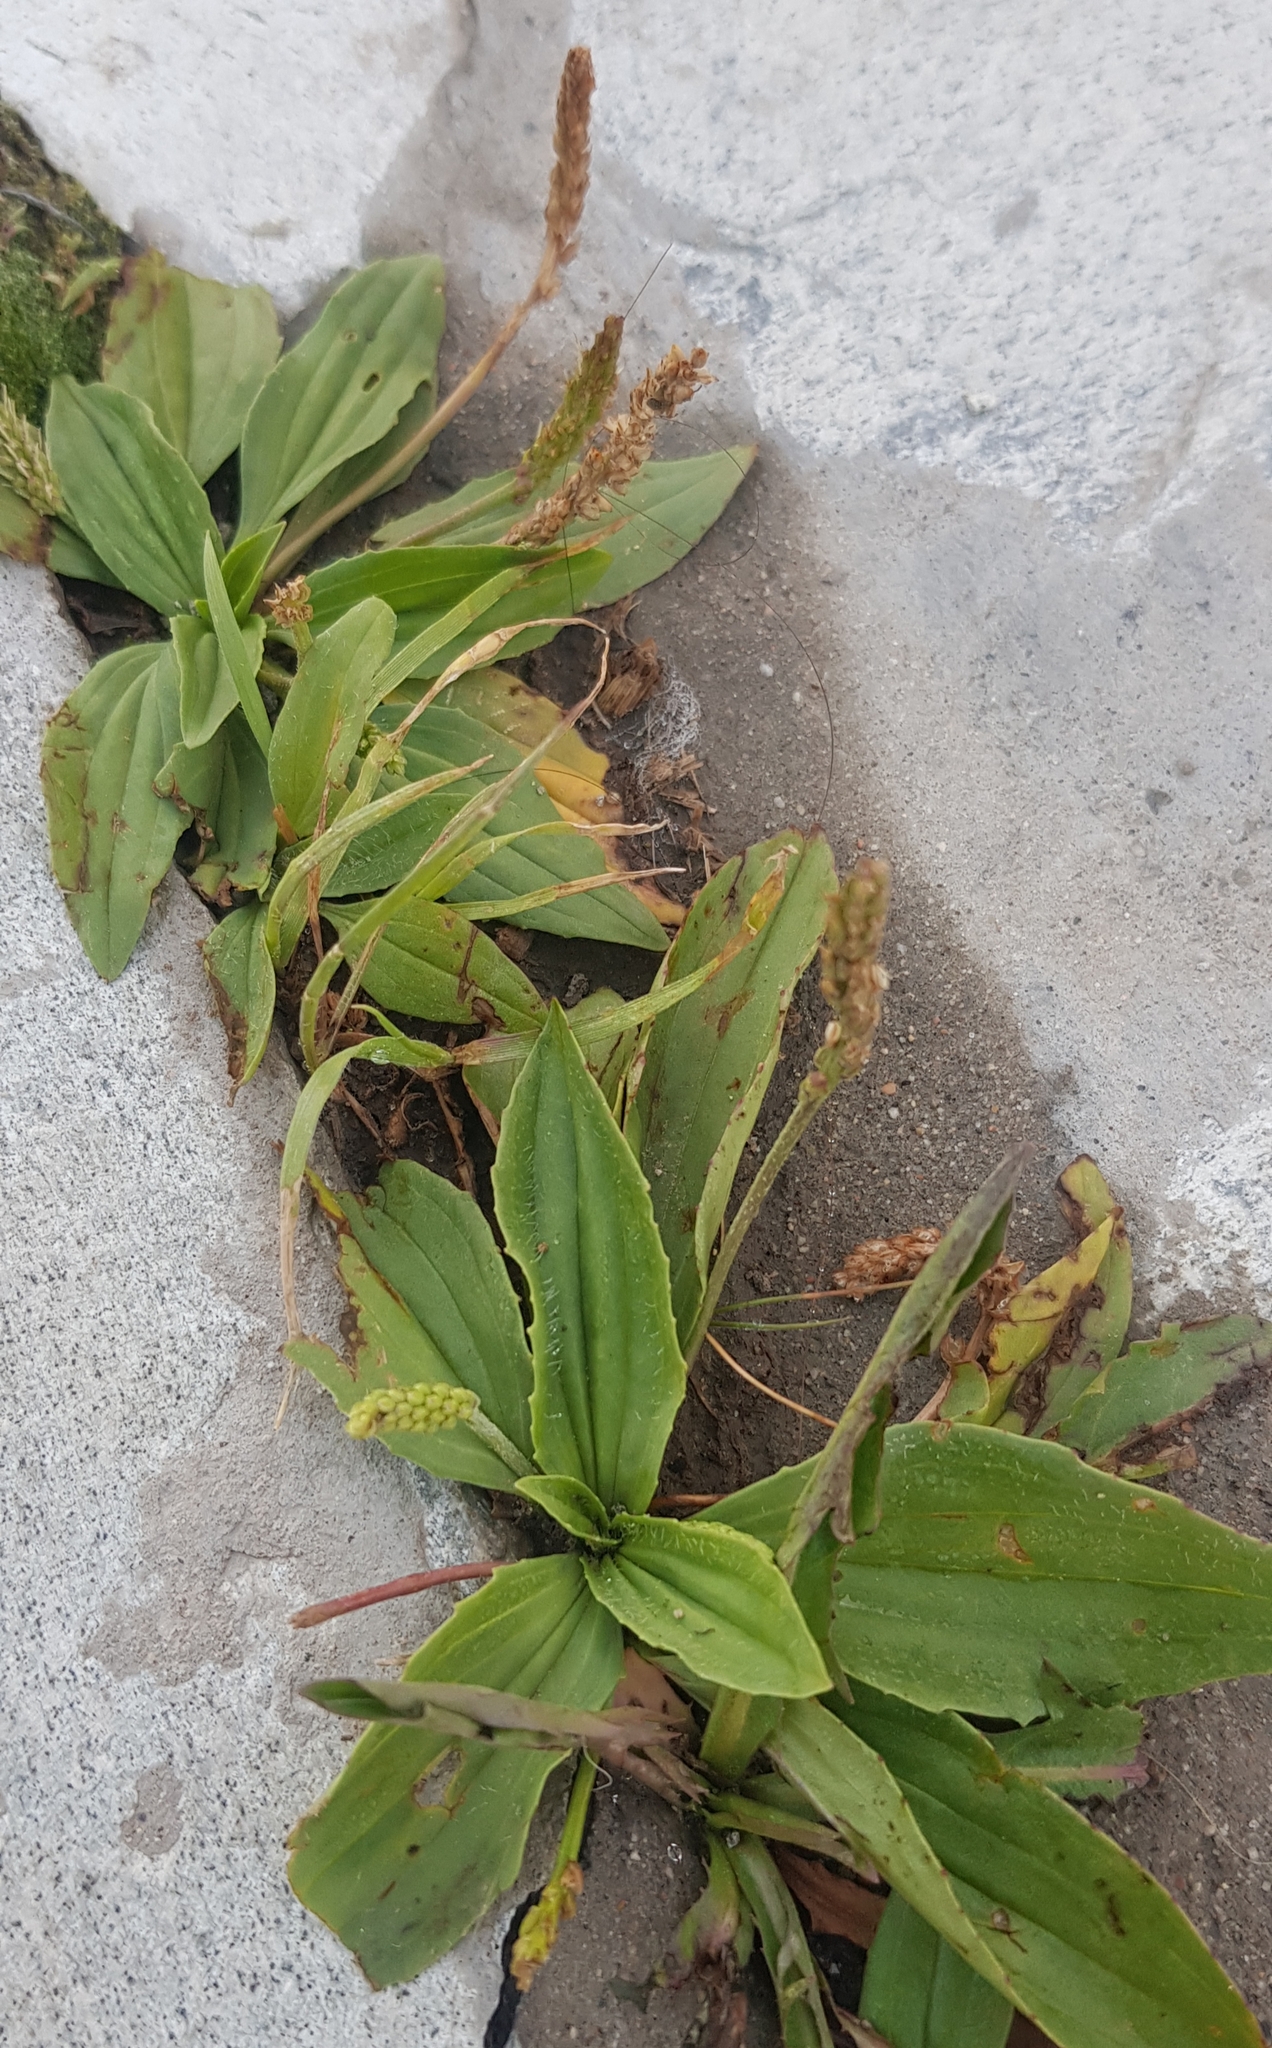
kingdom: Plantae
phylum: Tracheophyta
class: Magnoliopsida
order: Lamiales
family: Plantaginaceae
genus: Plantago
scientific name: Plantago depressa
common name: Depressed plantain
